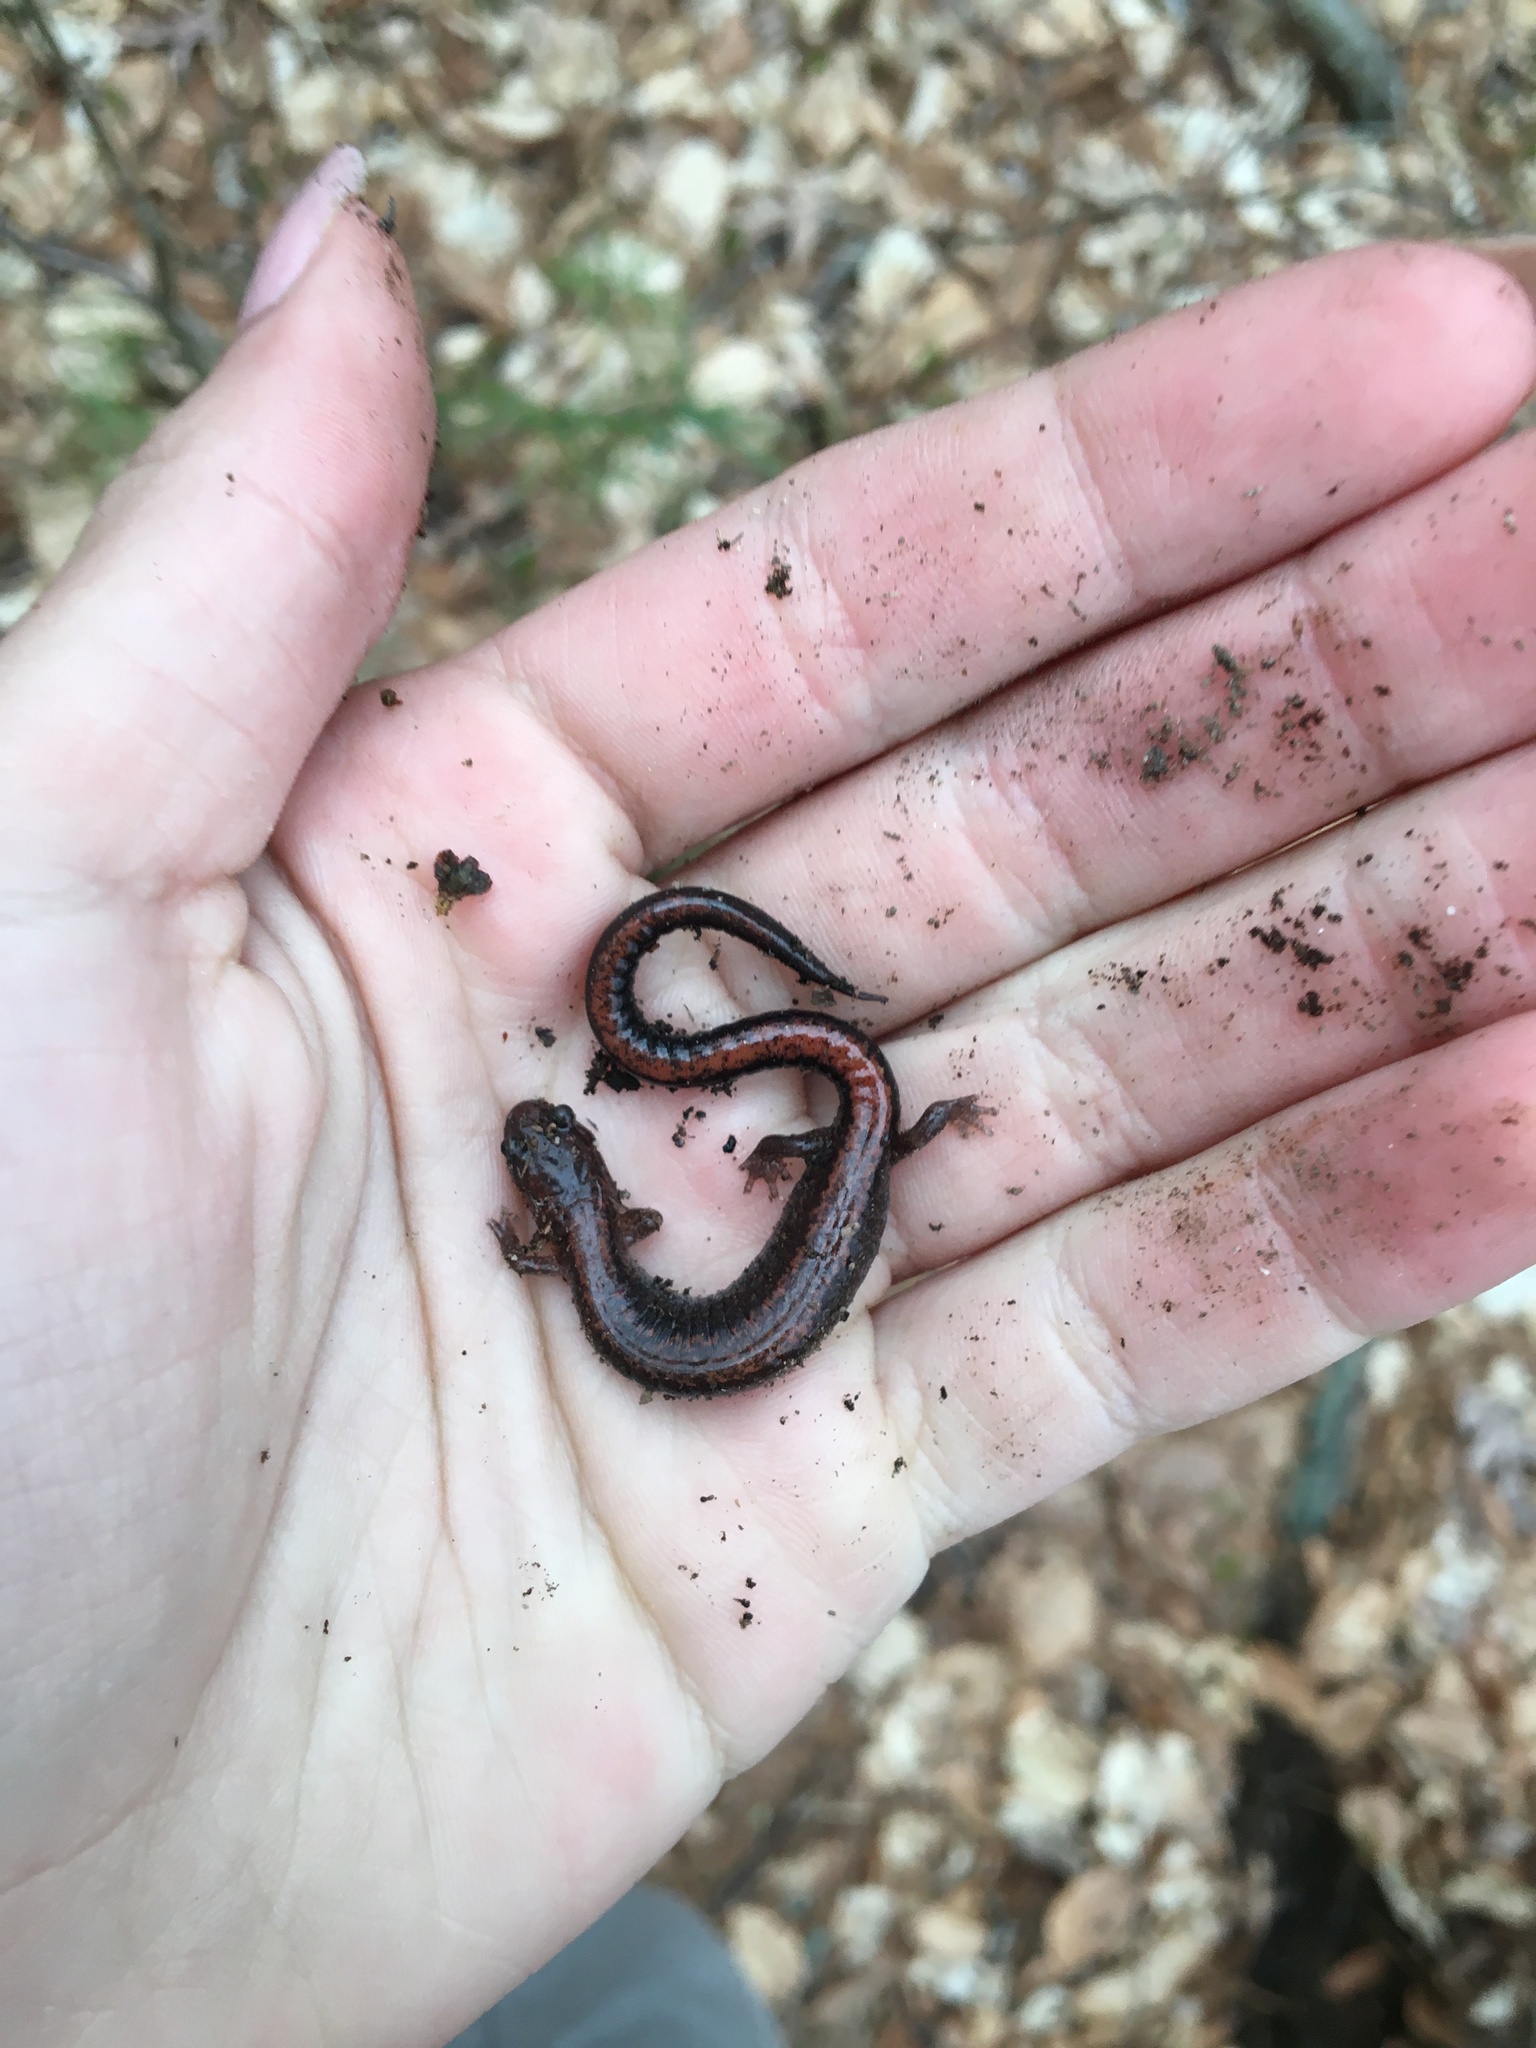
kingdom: Animalia
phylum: Chordata
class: Amphibia
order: Caudata
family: Plethodontidae
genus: Plethodon
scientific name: Plethodon cinereus
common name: Redback salamander
